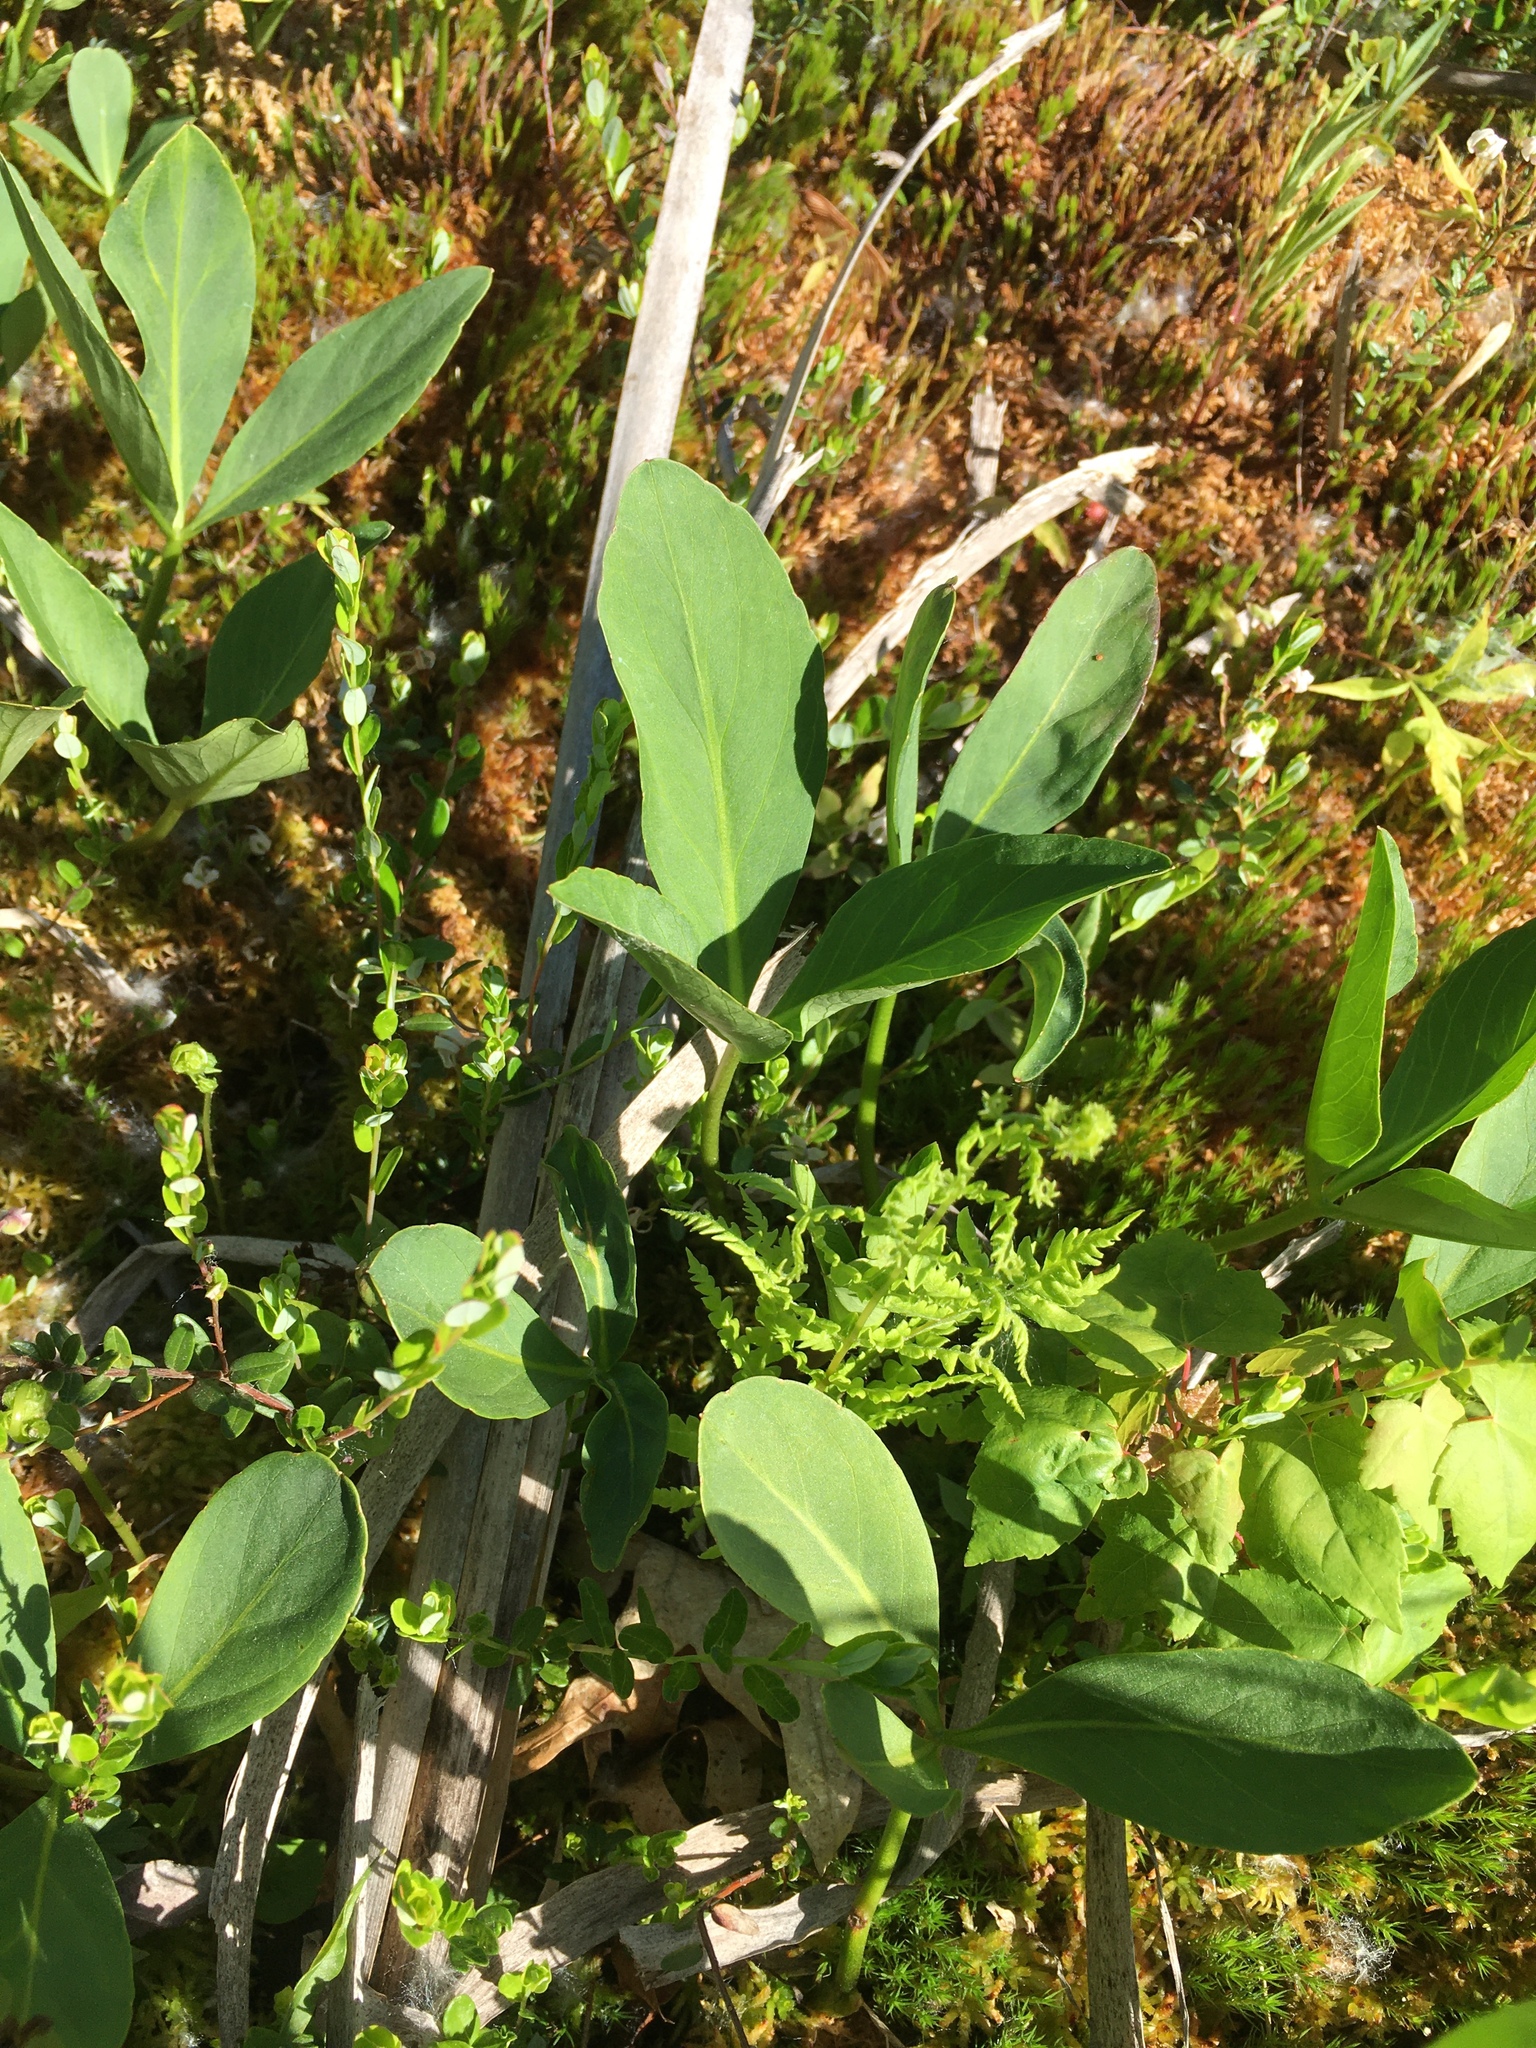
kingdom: Plantae
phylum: Tracheophyta
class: Magnoliopsida
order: Asterales
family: Menyanthaceae
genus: Menyanthes
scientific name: Menyanthes trifoliata
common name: Bogbean
